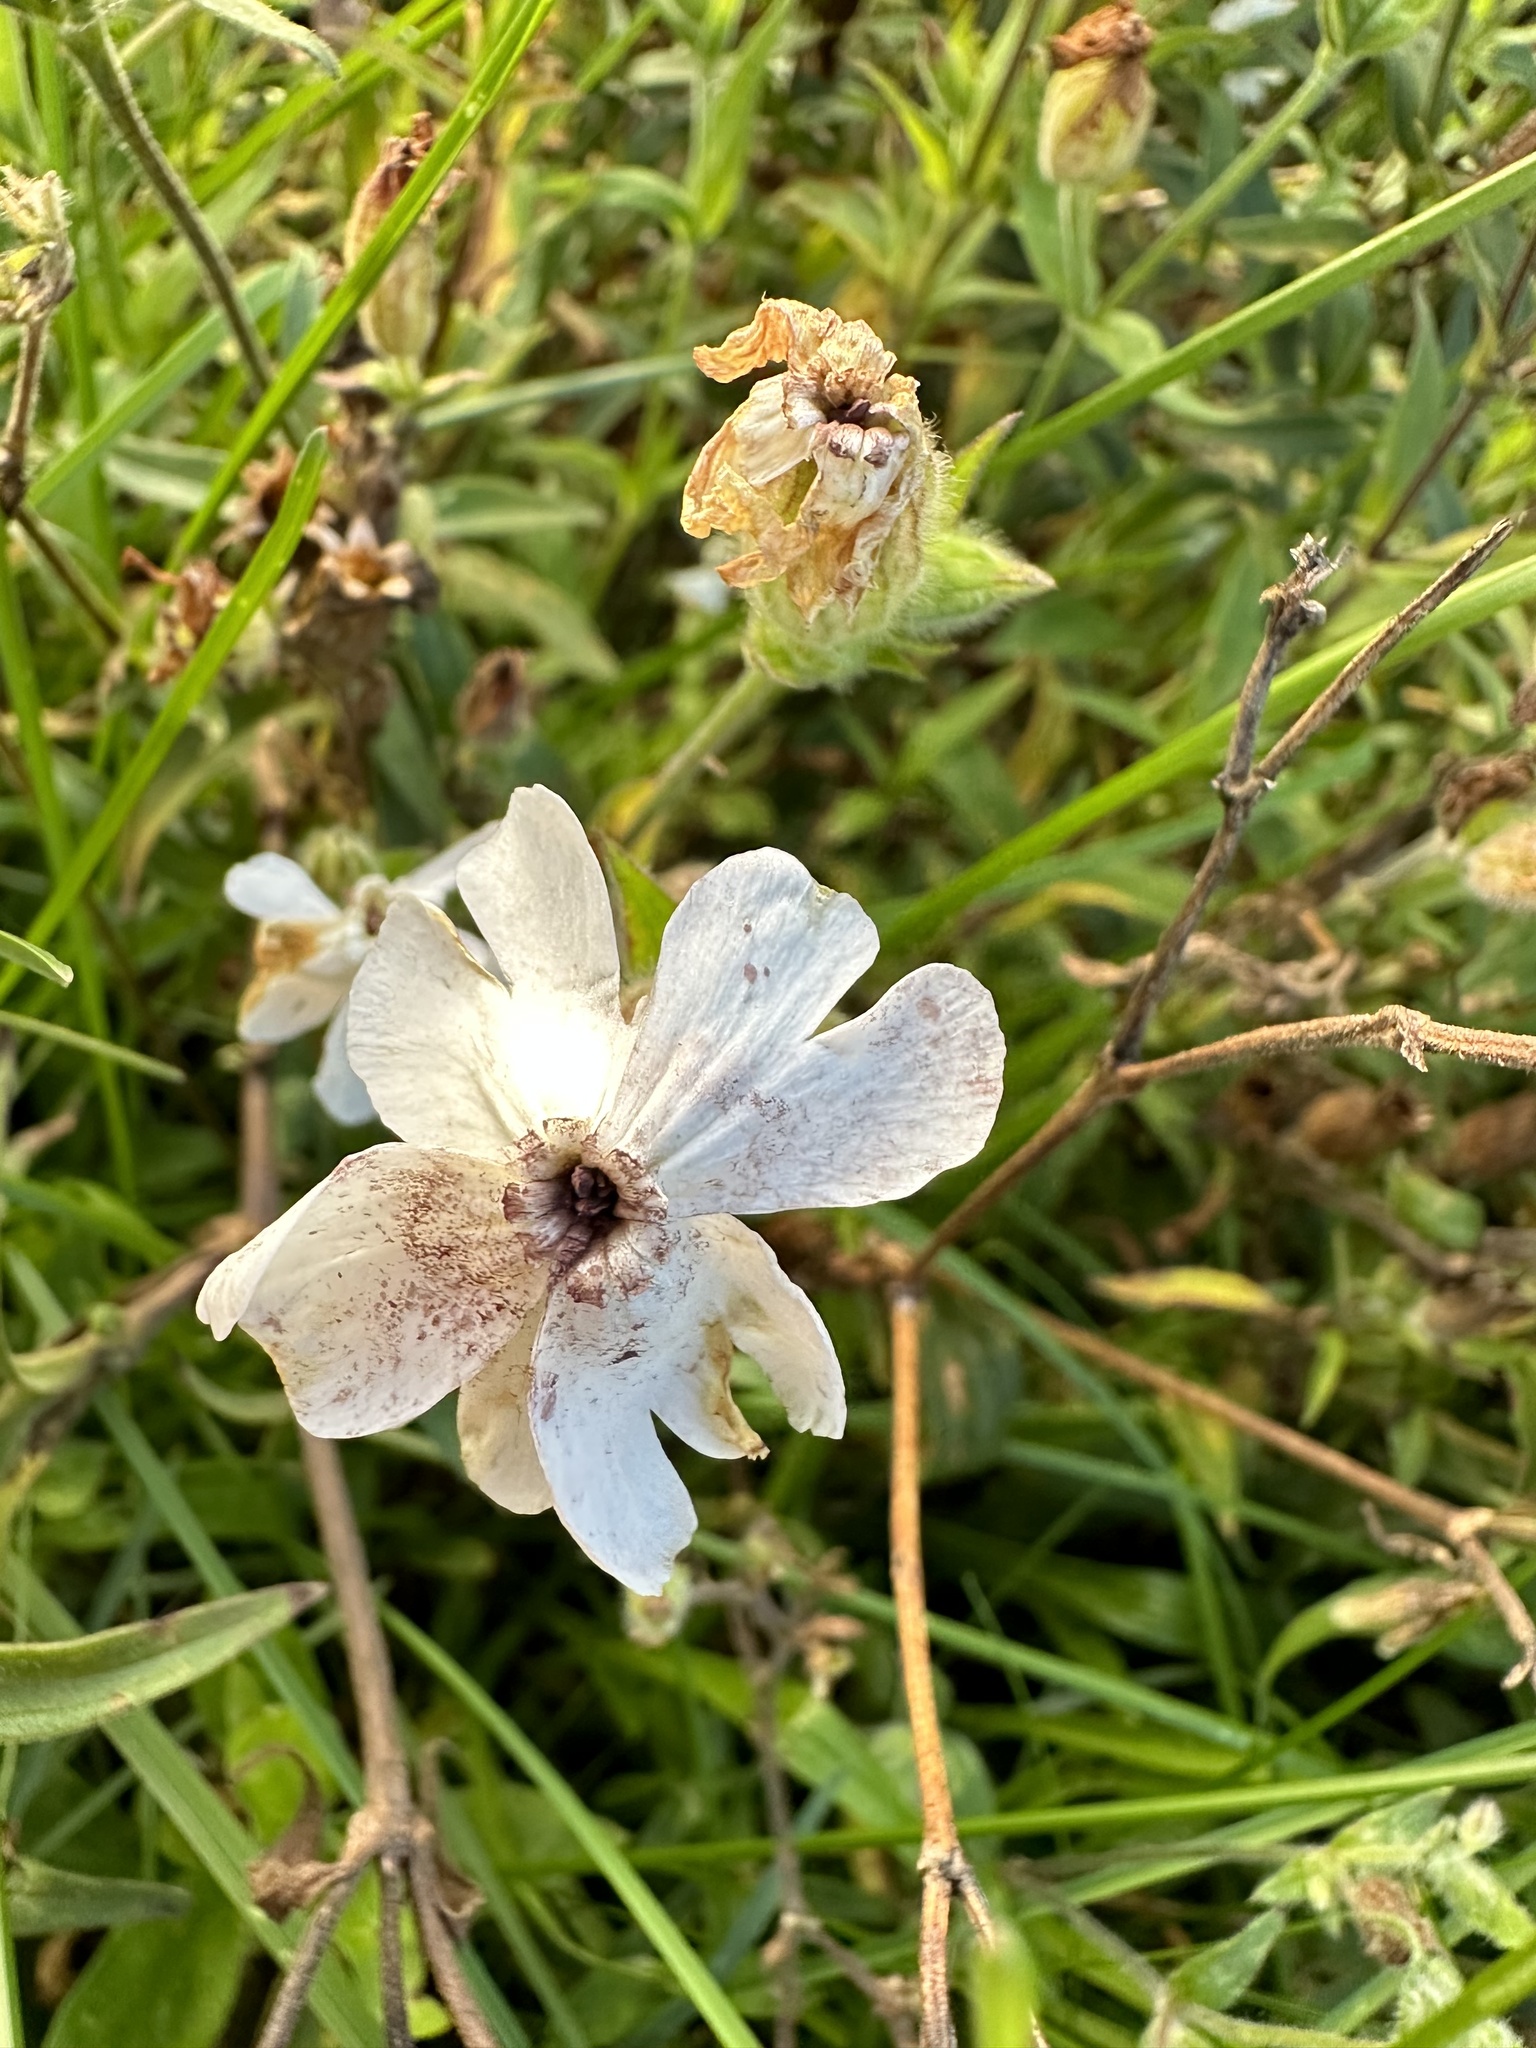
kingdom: Fungi
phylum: Basidiomycota
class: Microbotryomycetes
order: Microbotryales
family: Microbotryaceae
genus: Microbotryum
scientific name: Microbotryum lychnidis-dioicae
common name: Campion anther smut
